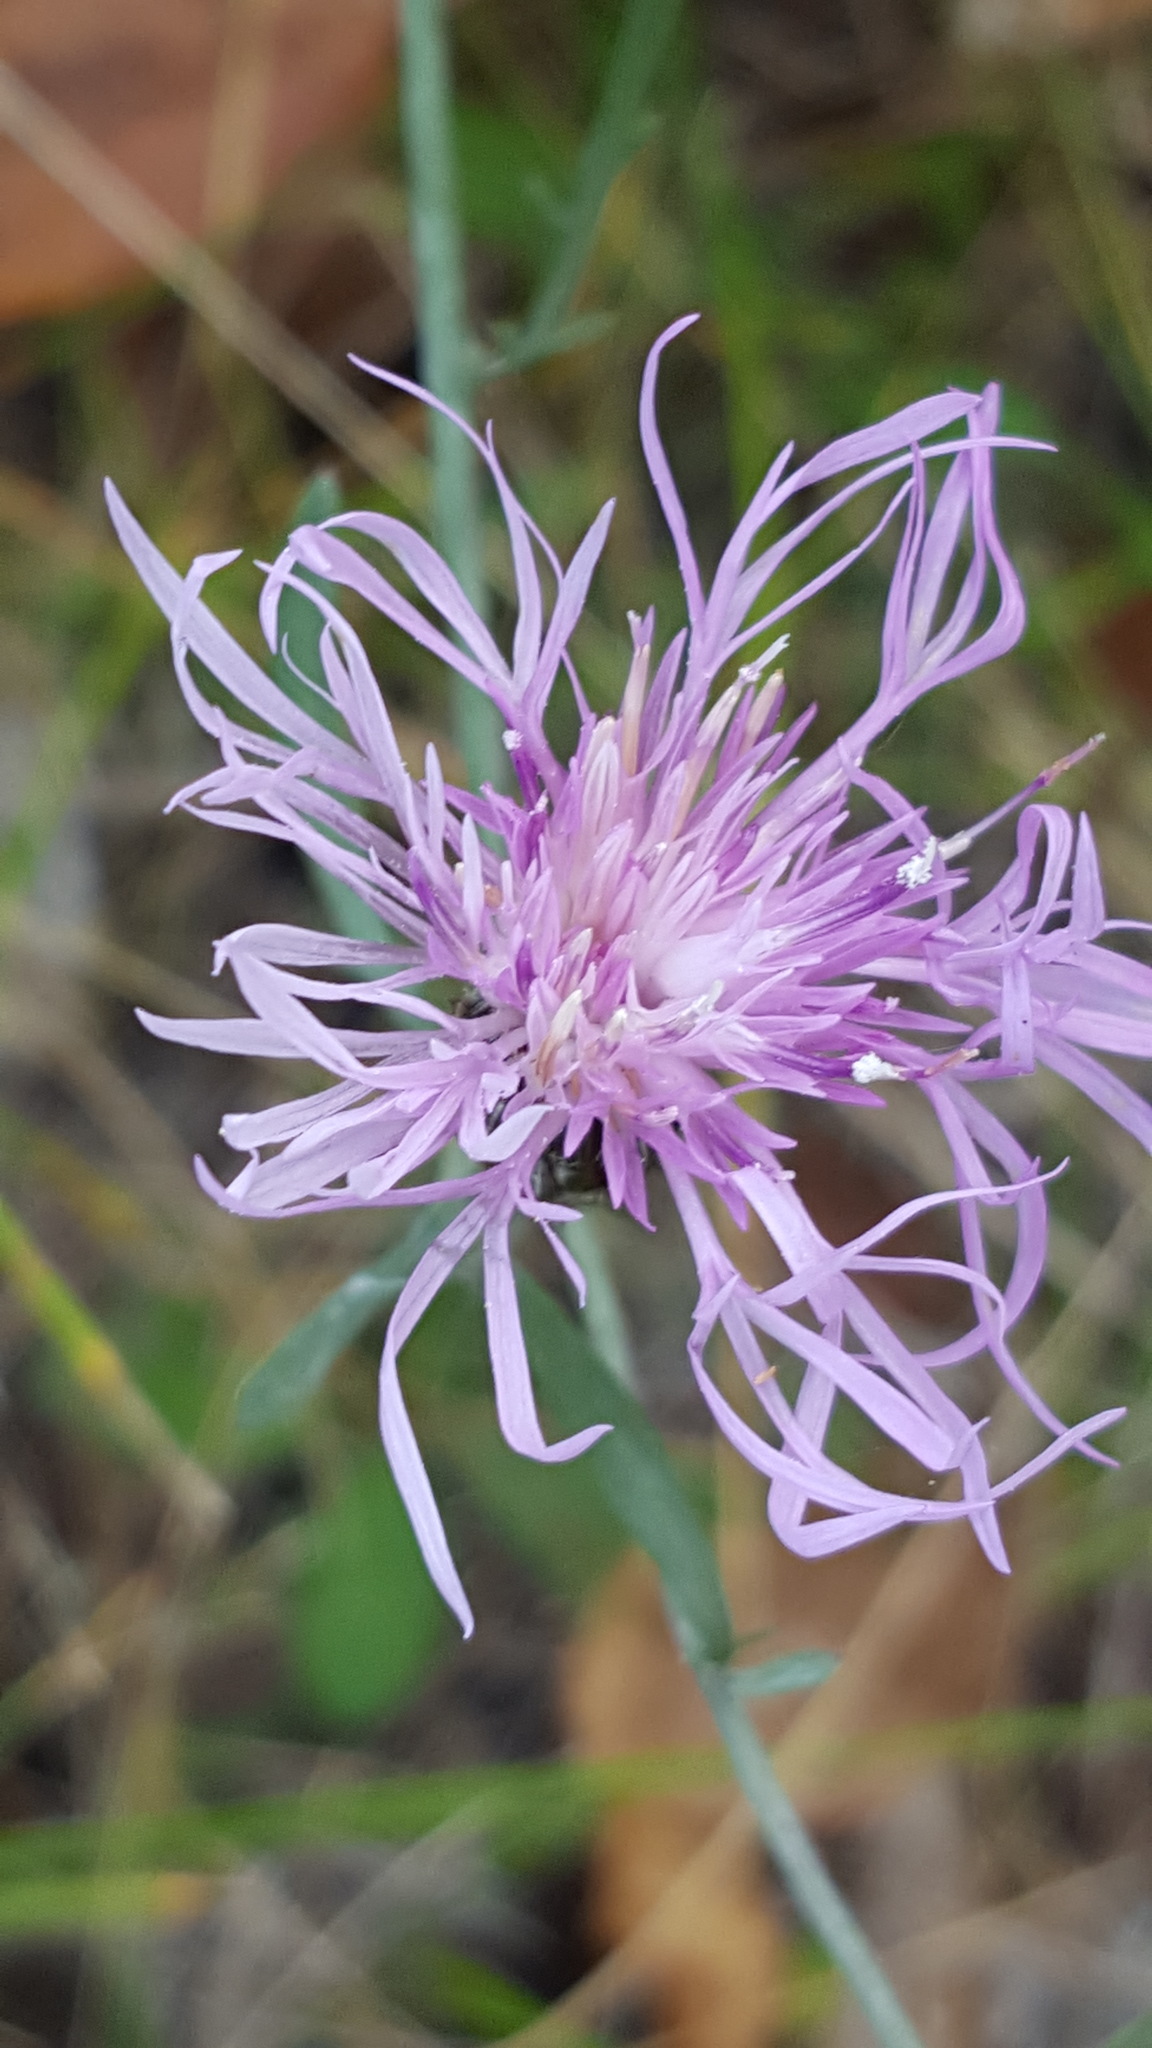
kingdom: Plantae
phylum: Tracheophyta
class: Magnoliopsida
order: Asterales
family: Asteraceae
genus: Centaurea
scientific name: Centaurea stoebe
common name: Spotted knapweed
